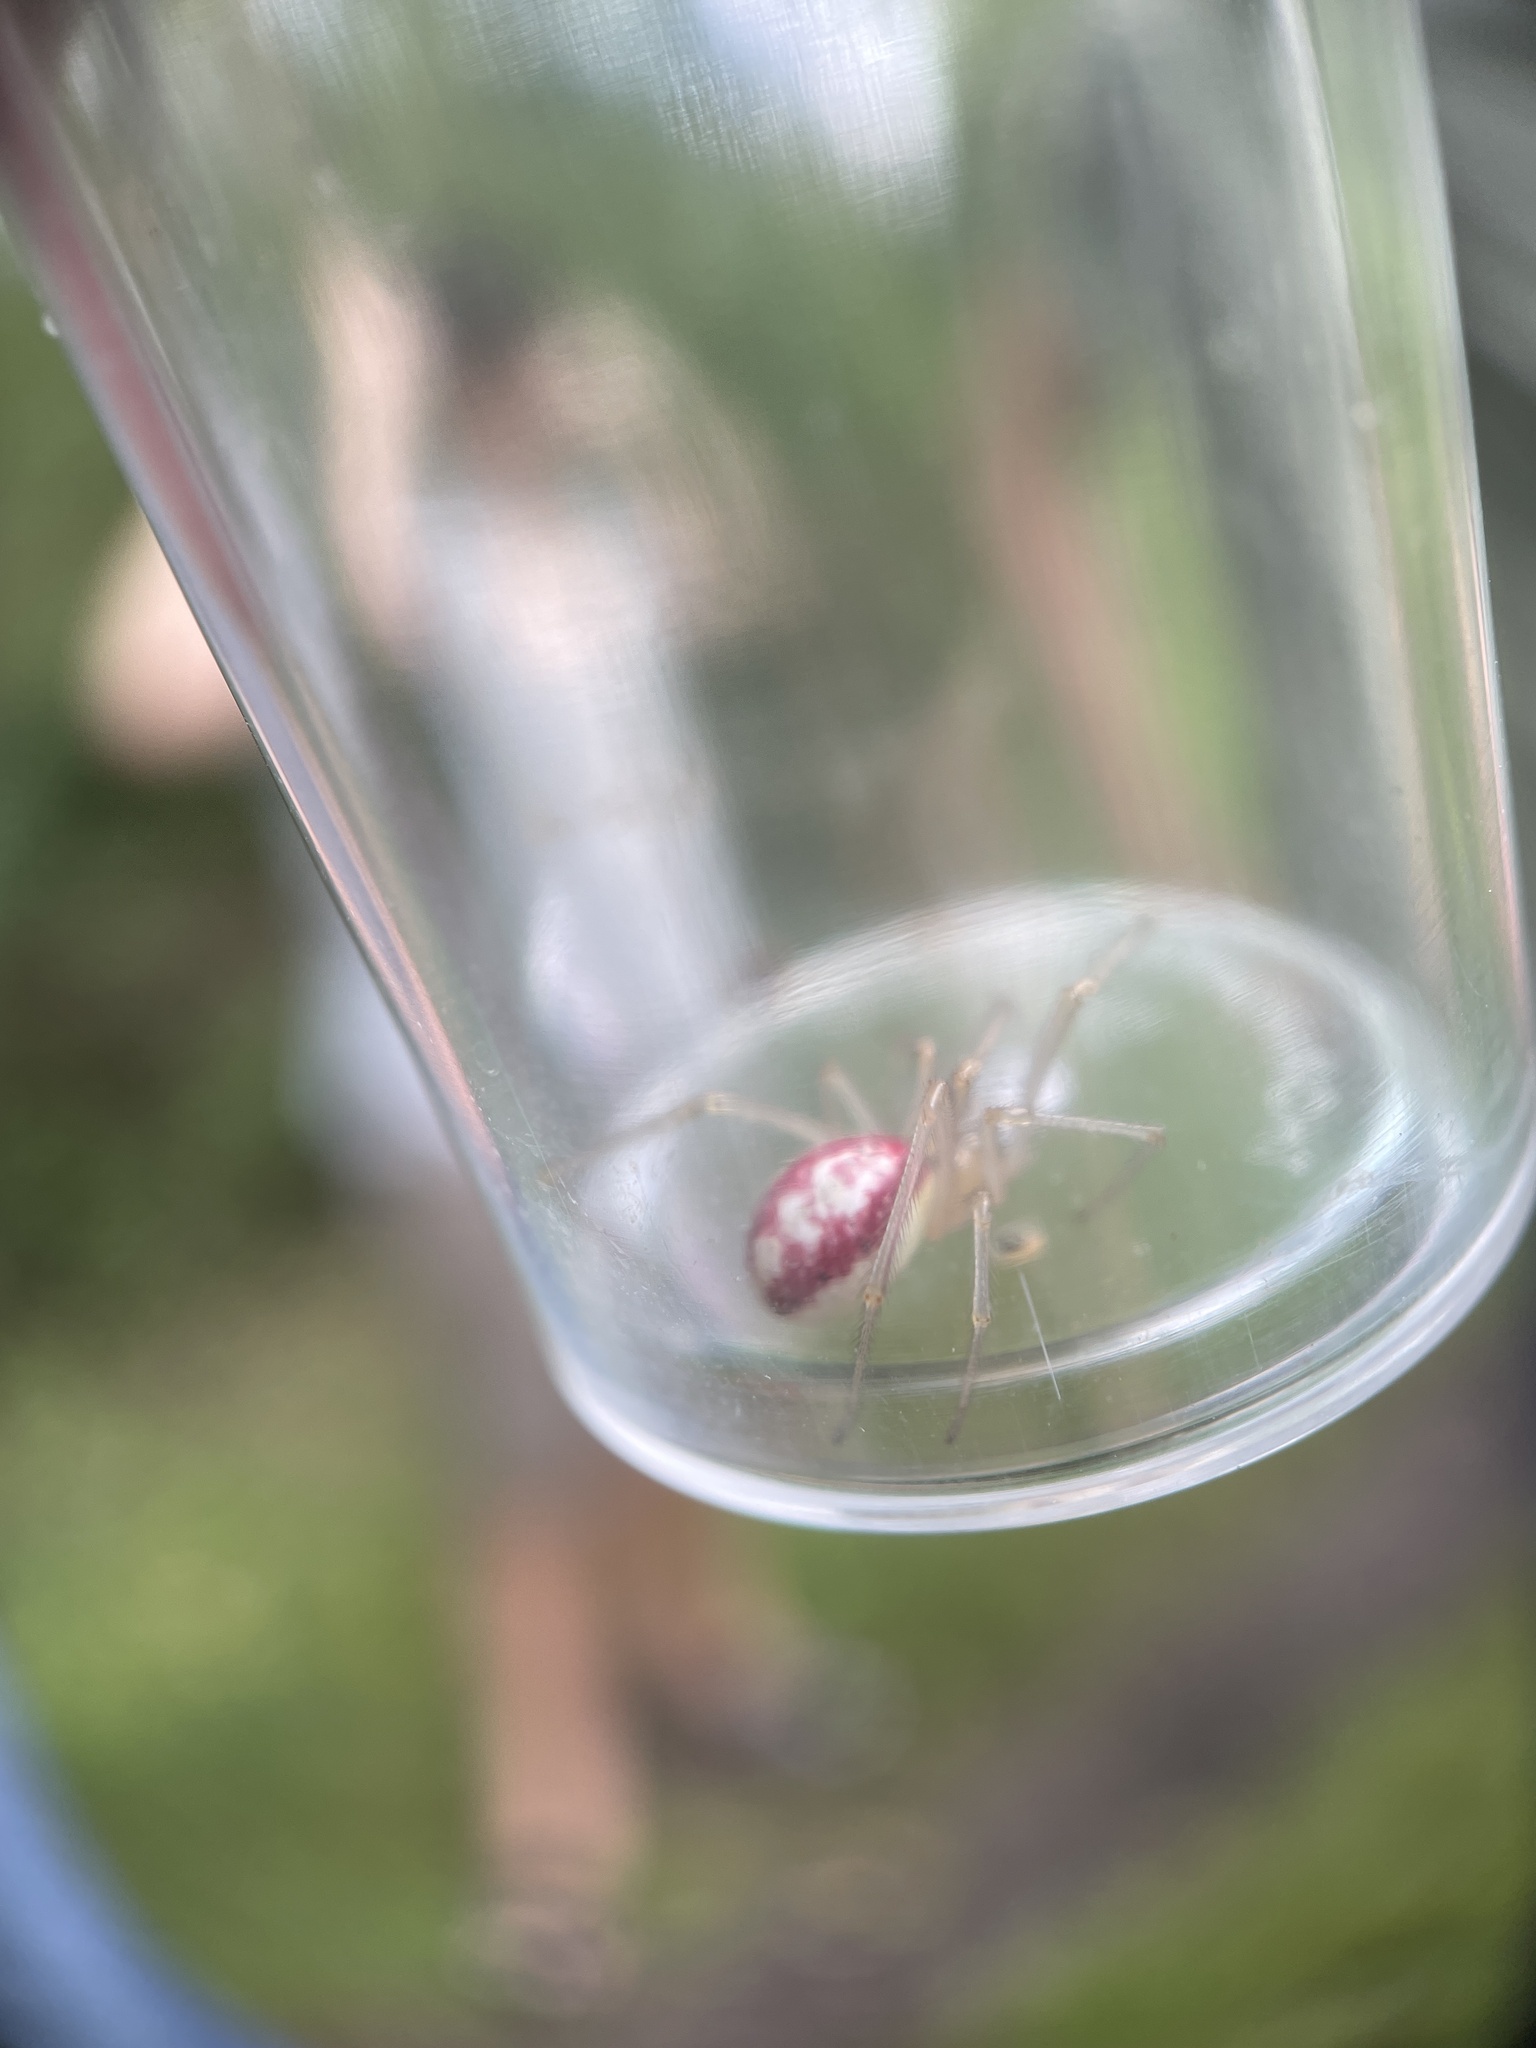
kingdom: Animalia
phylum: Arthropoda
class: Arachnida
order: Araneae
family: Theridiidae
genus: Enoplognatha
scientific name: Enoplognatha ovata
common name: Common candy-striped spider
